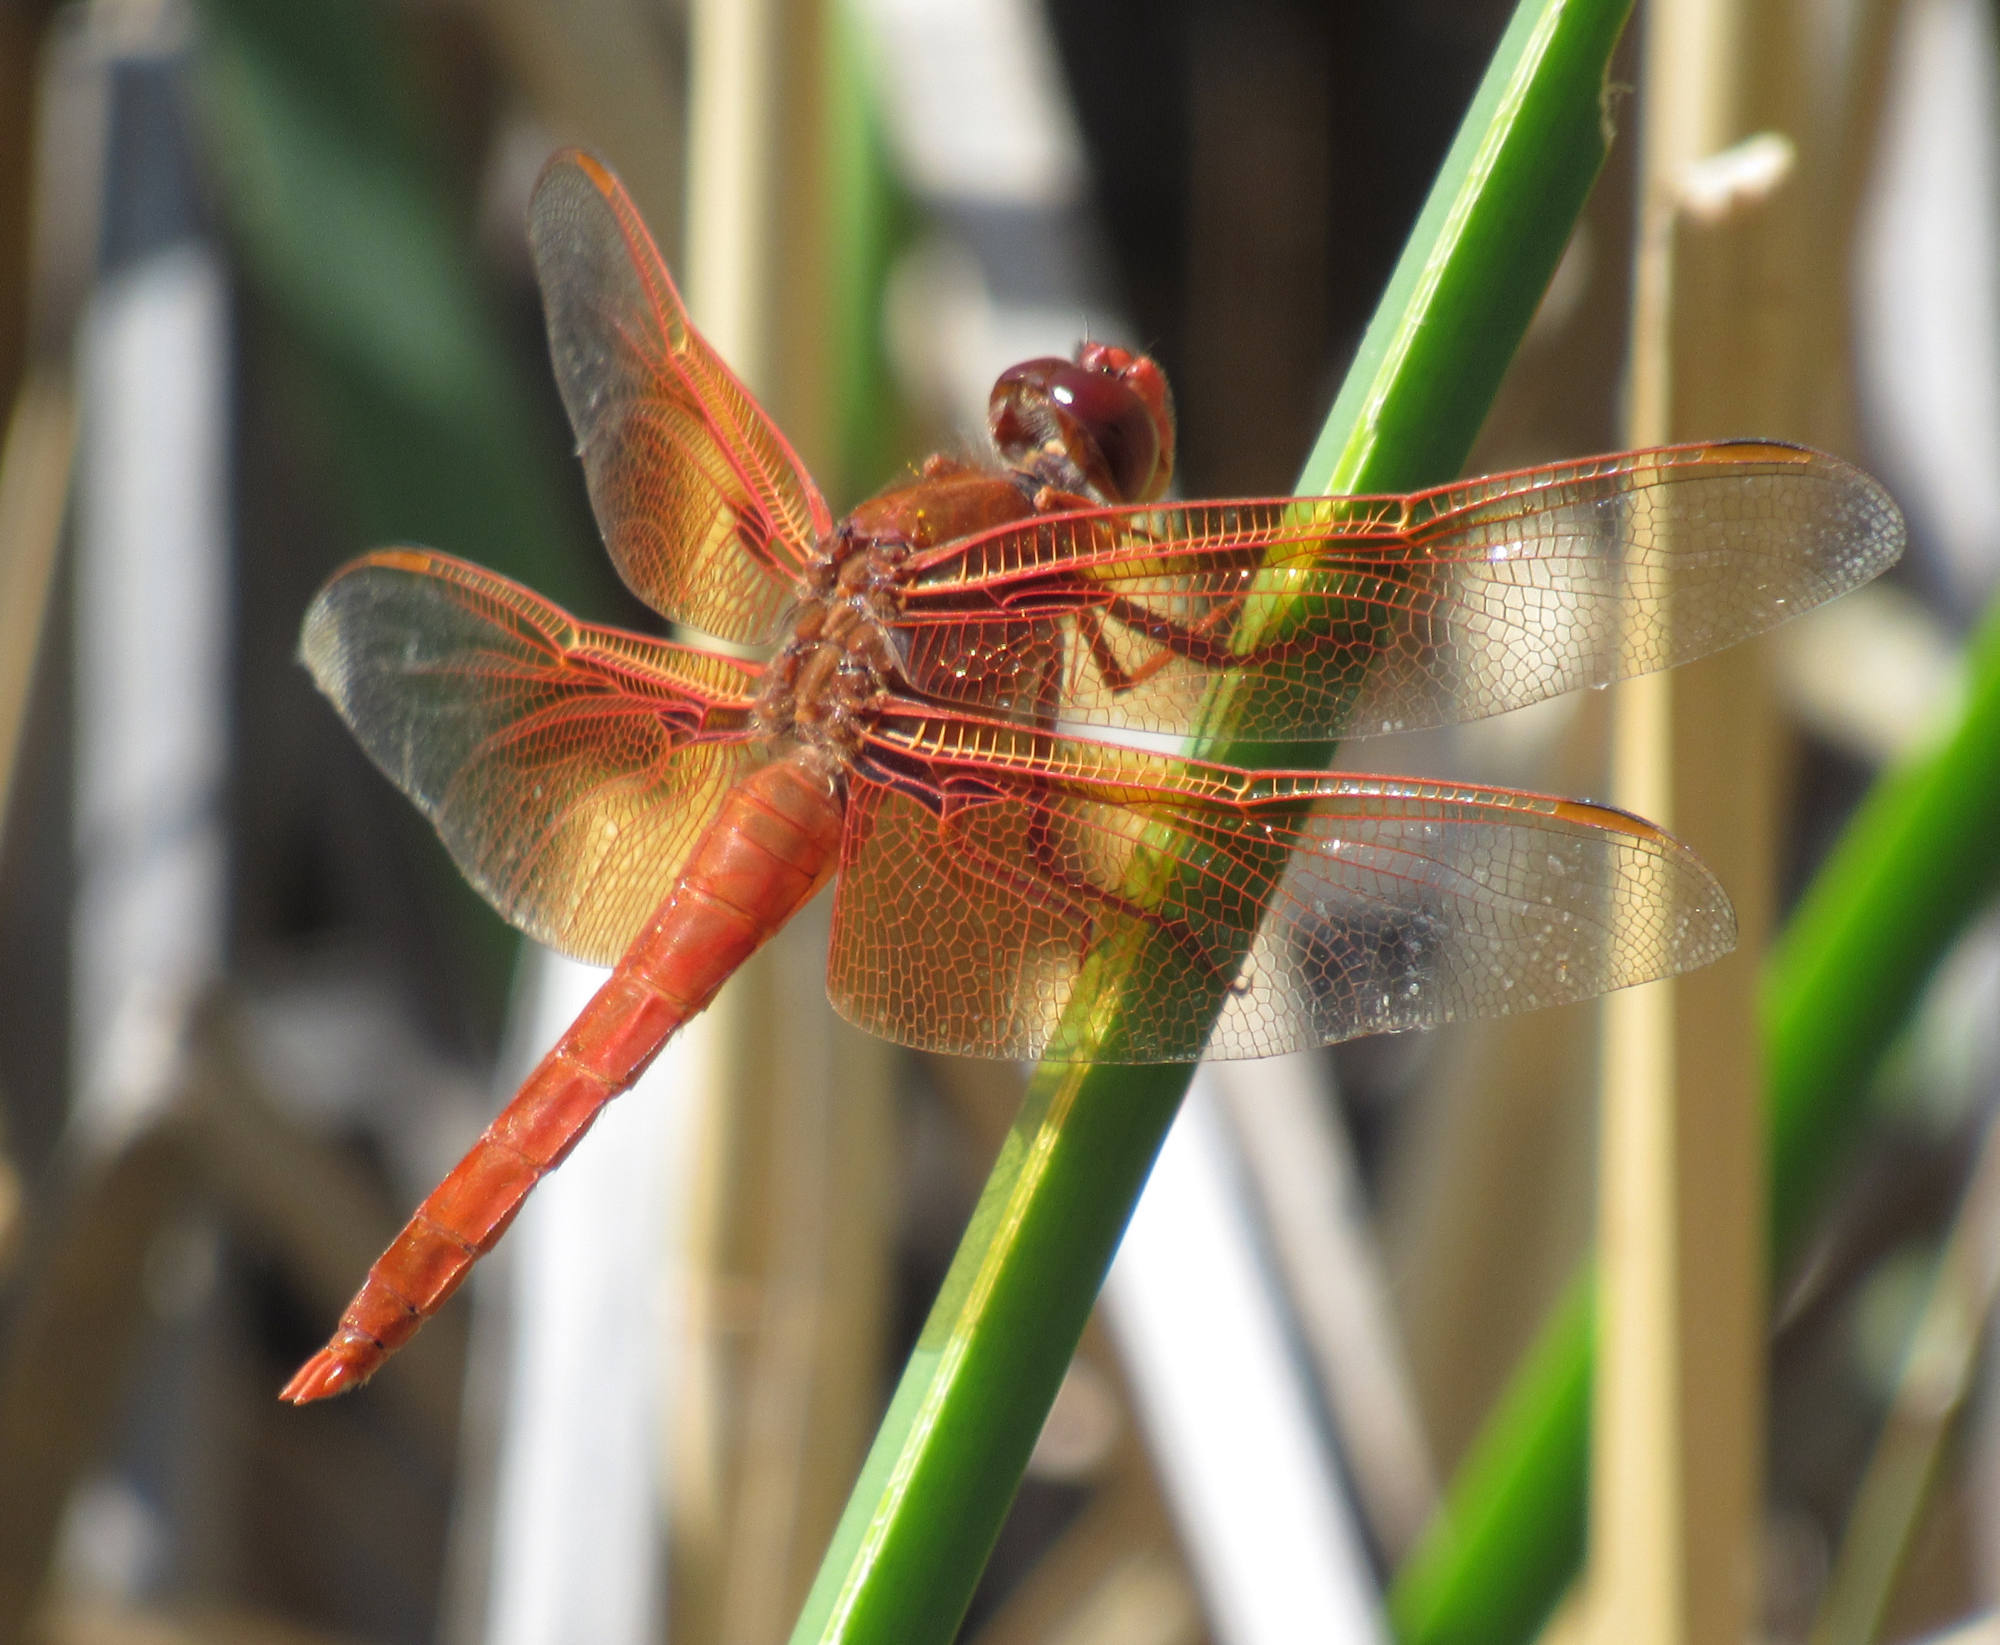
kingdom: Animalia
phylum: Arthropoda
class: Insecta
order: Odonata
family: Libellulidae
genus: Libellula
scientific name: Libellula saturata
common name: Flame skimmer
